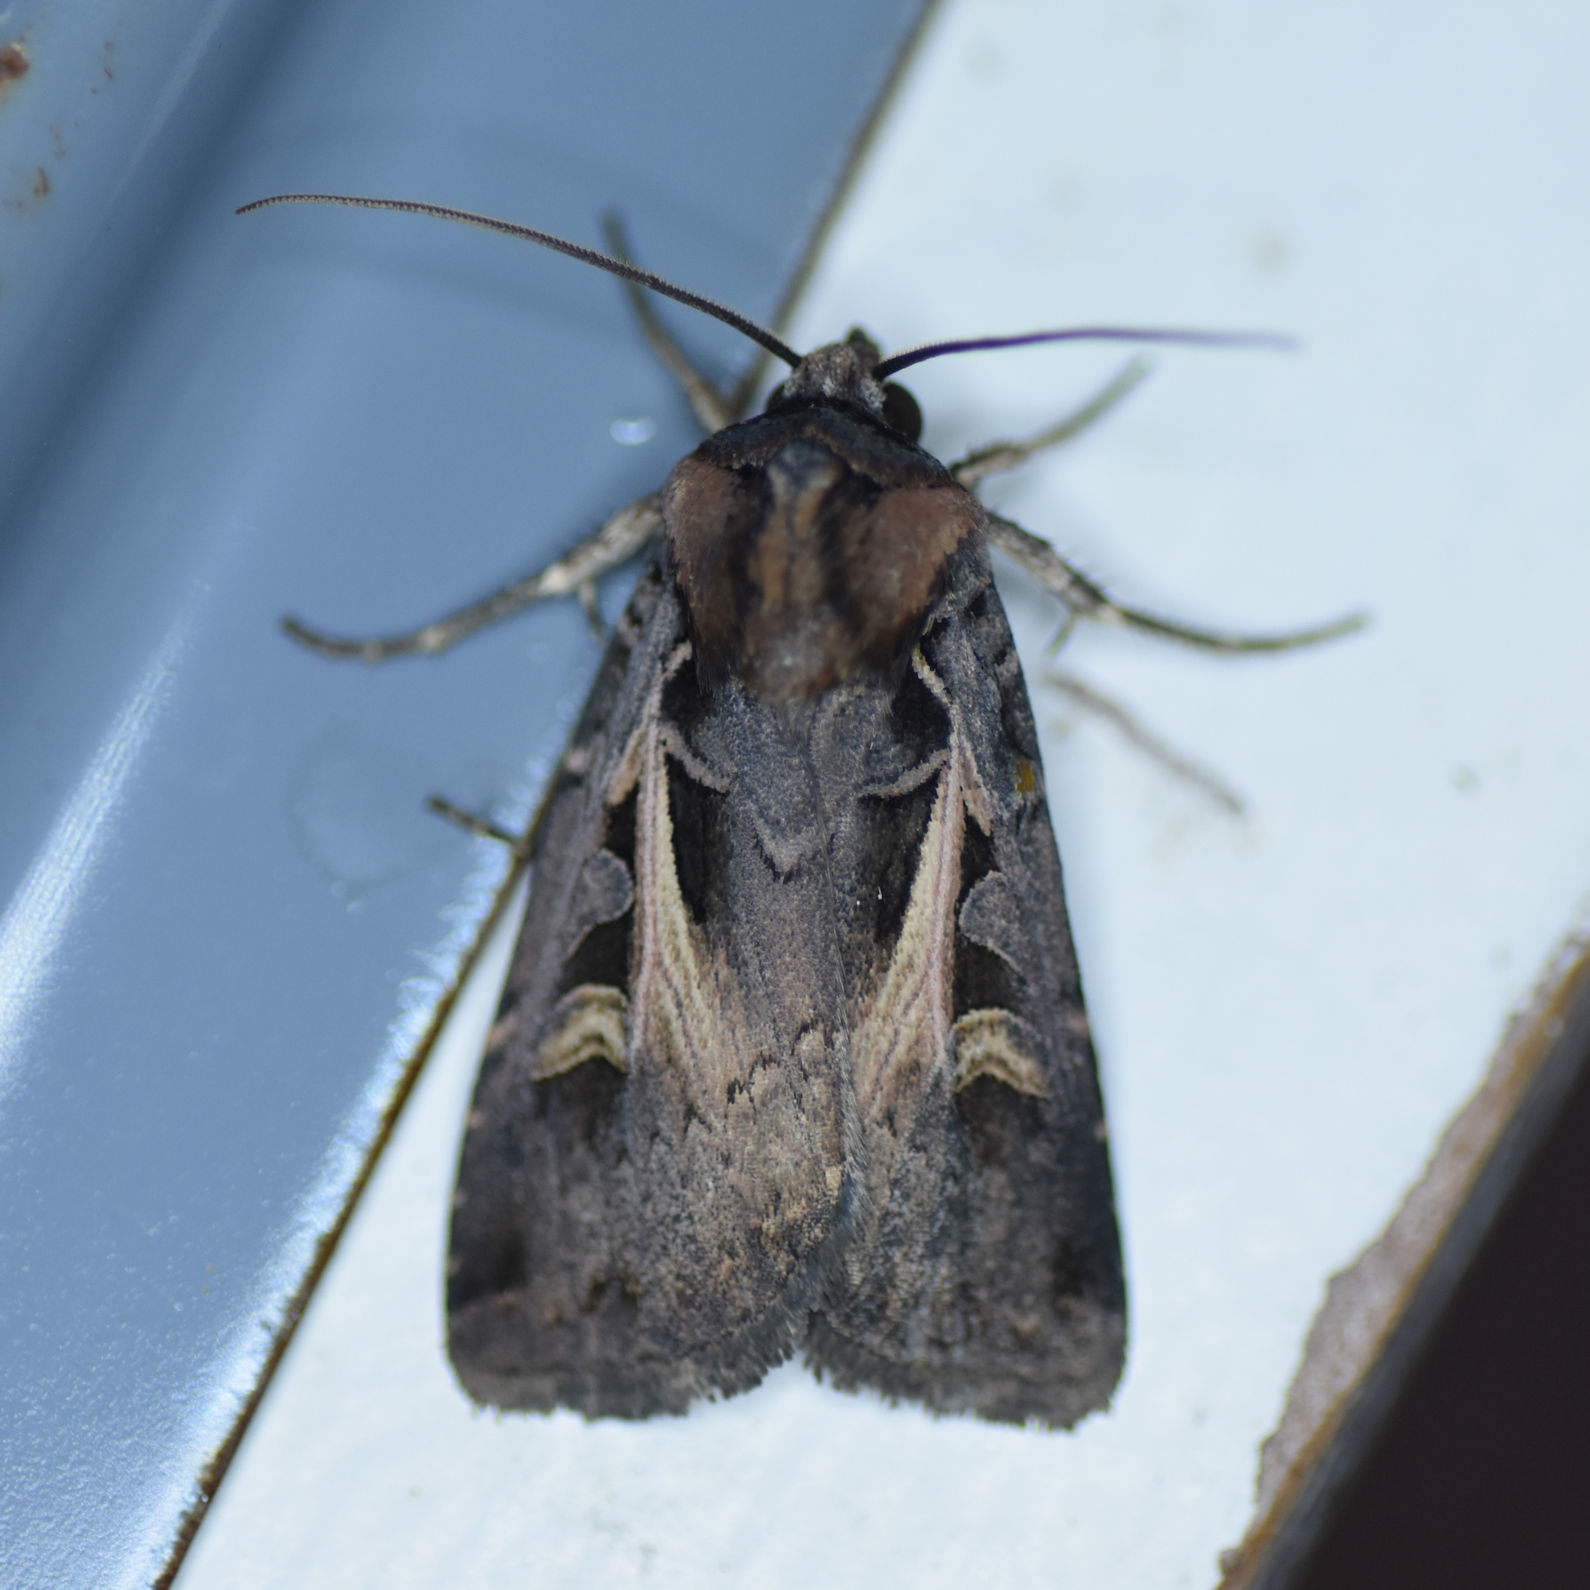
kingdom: Animalia
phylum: Arthropoda
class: Insecta
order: Lepidoptera
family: Noctuidae
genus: Feltia
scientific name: Feltia herilis
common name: Master's dart
